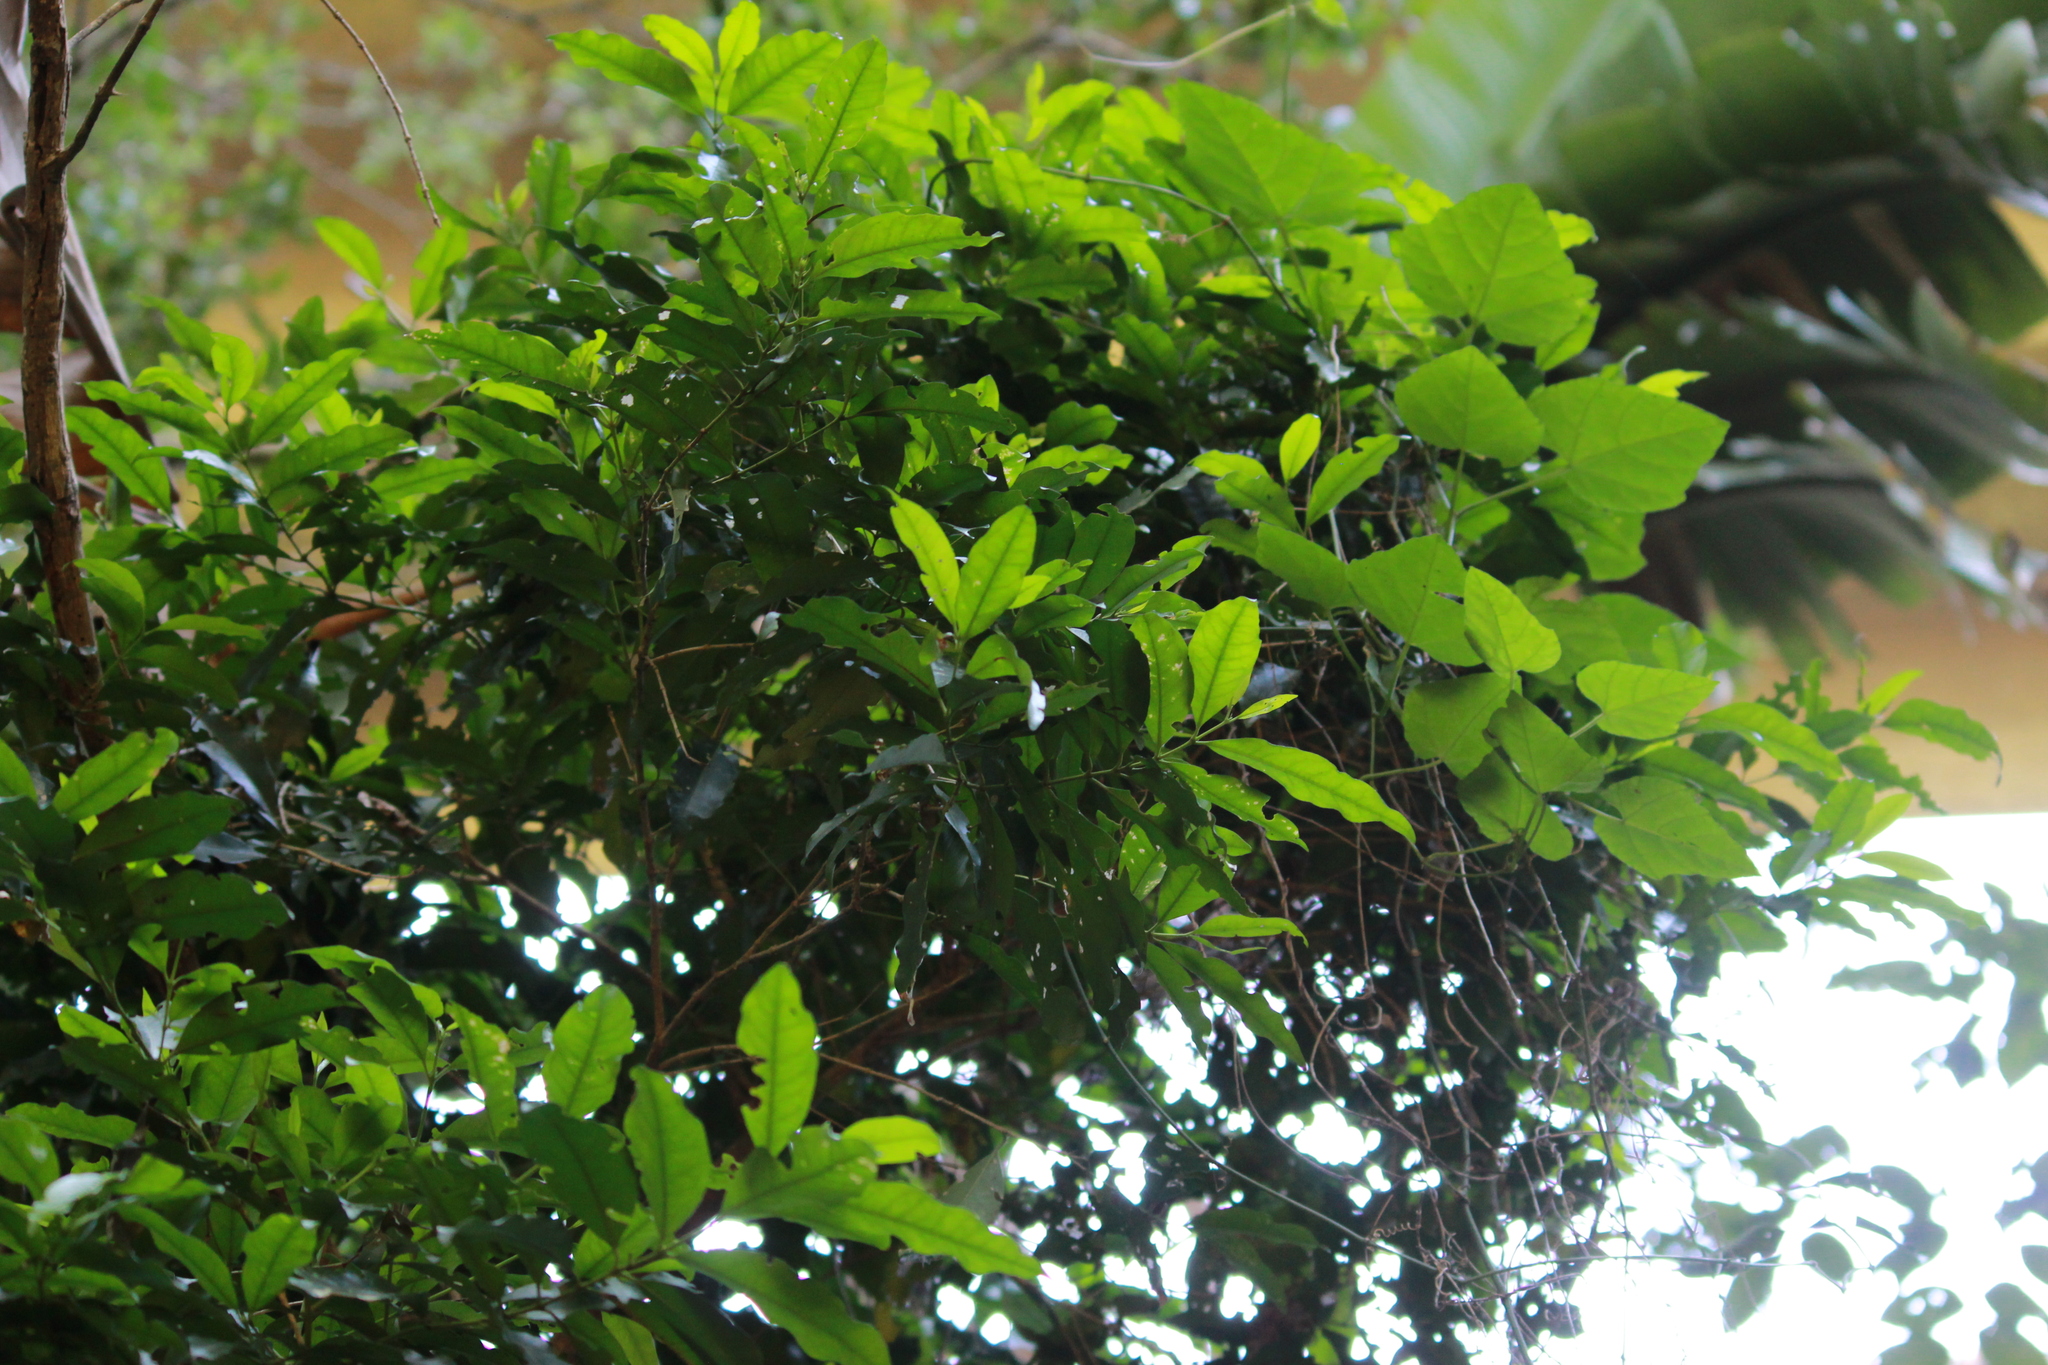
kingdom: Plantae
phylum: Tracheophyta
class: Magnoliopsida
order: Gentianales
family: Rubiaceae
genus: Empogona
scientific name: Empogona lanceolata
